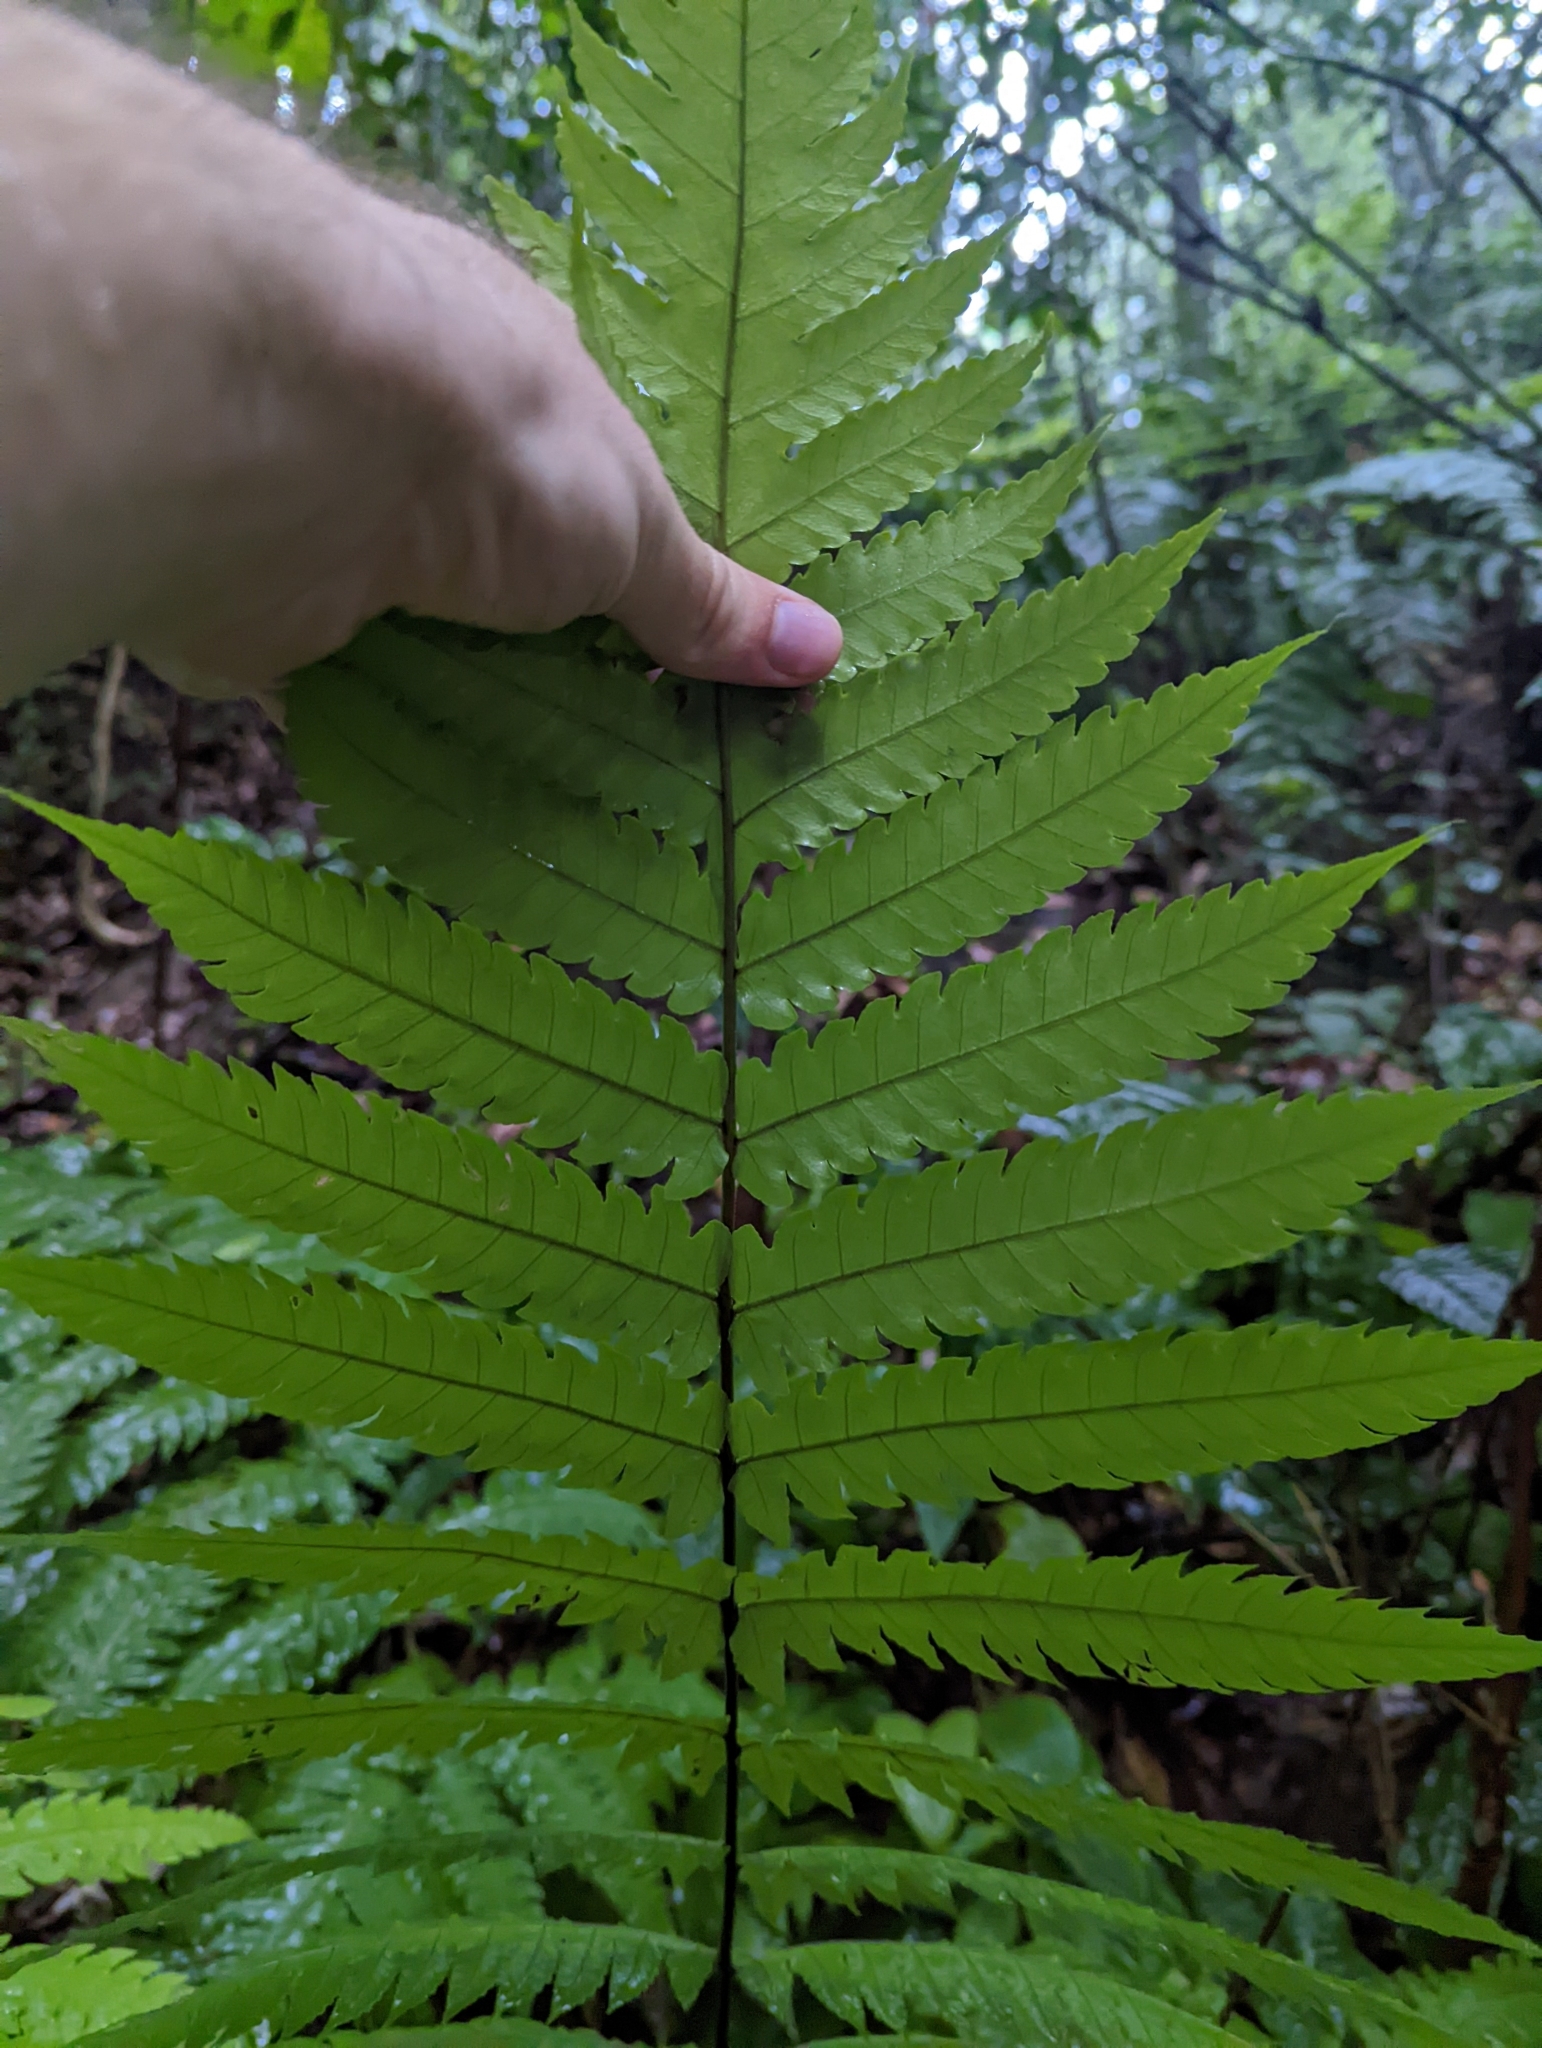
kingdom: Plantae
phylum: Tracheophyta
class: Polypodiopsida
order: Polypodiales
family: Dryopteridaceae
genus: Pleocnemia
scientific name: Pleocnemia irregularis
